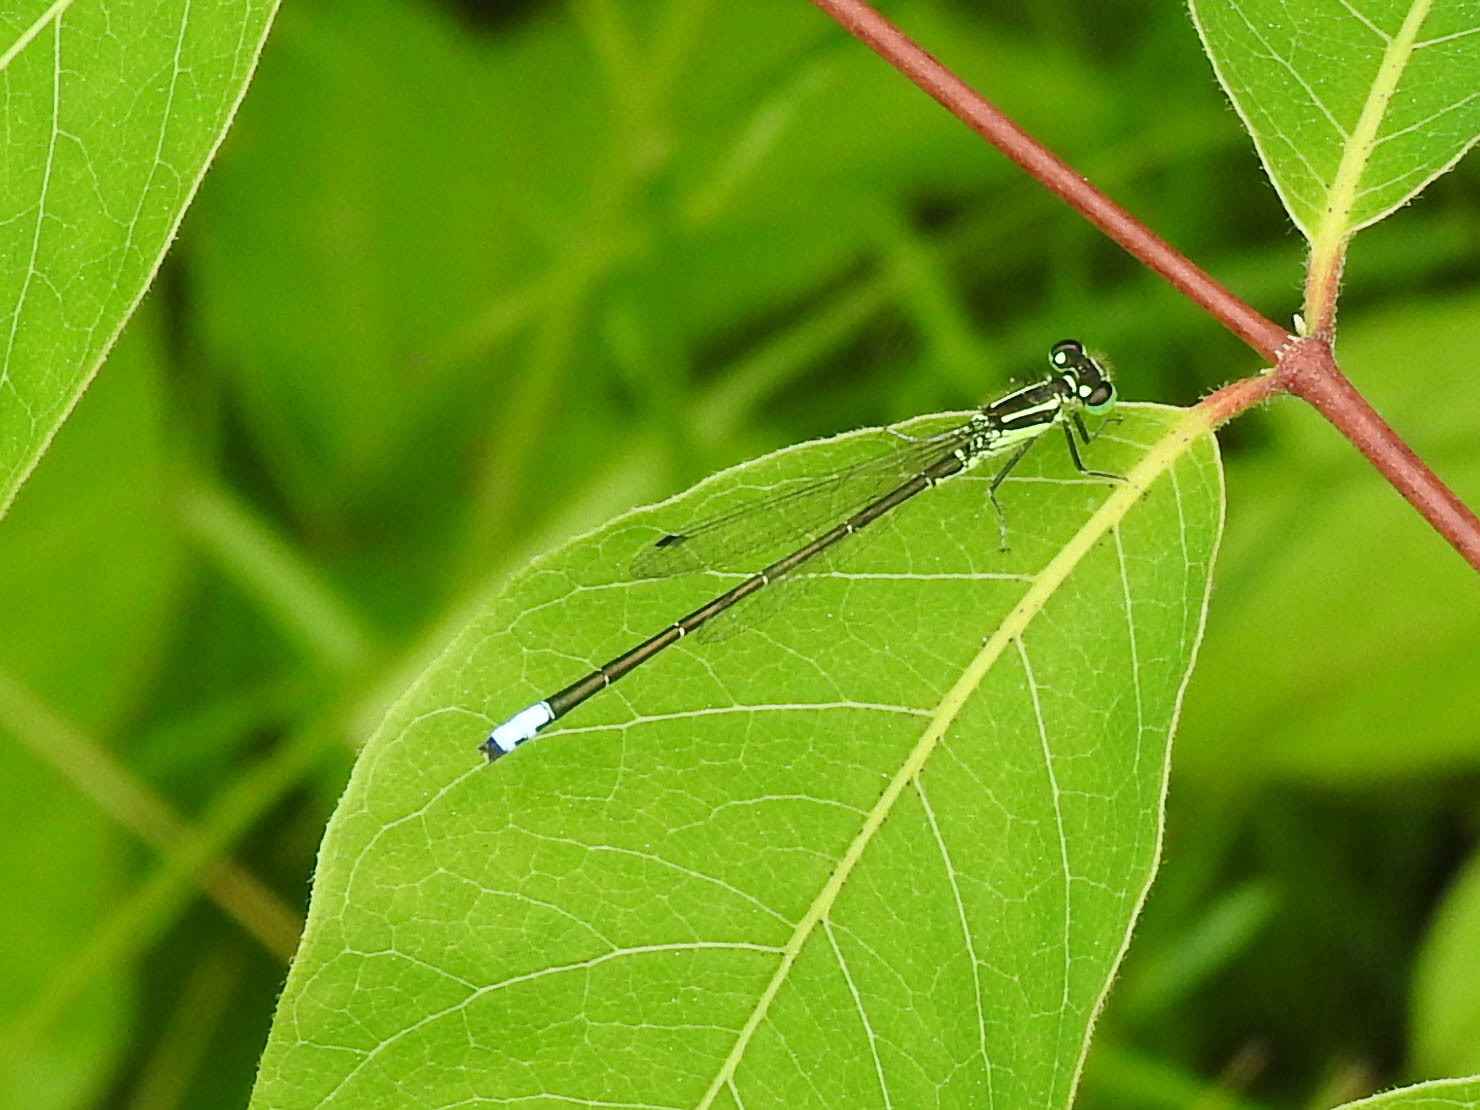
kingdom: Animalia
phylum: Arthropoda
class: Insecta
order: Odonata
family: Coenagrionidae
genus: Ischnura
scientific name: Ischnura verticalis
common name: Eastern forktail
